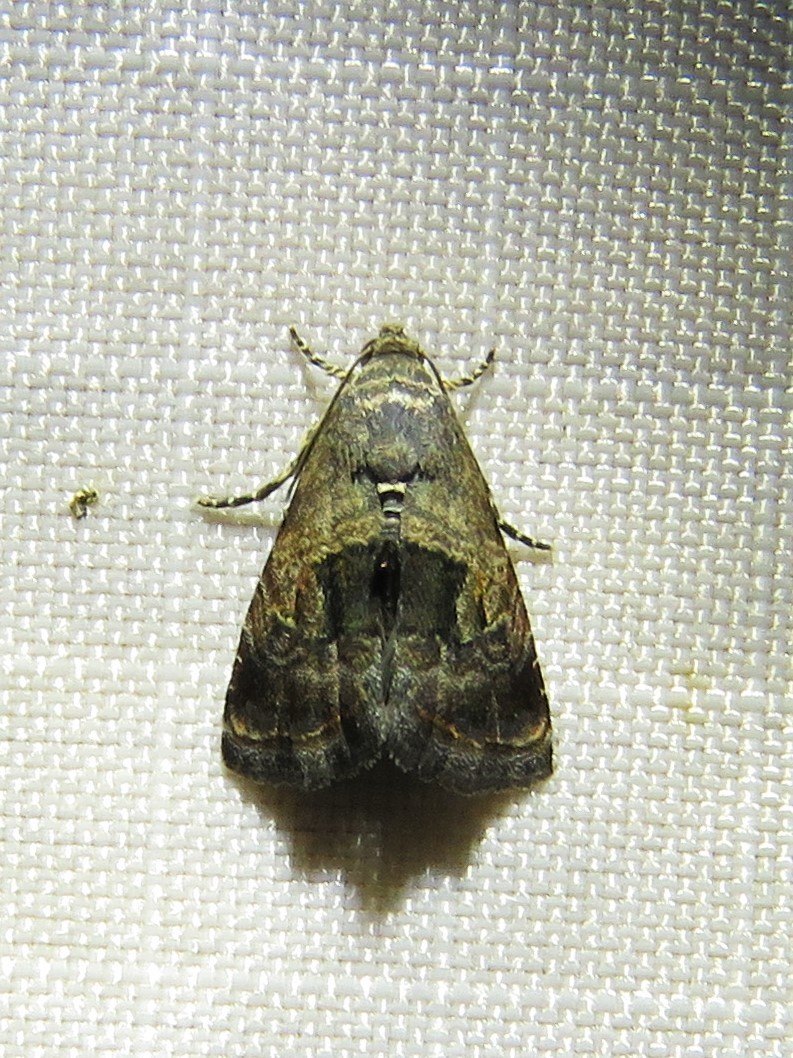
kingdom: Animalia
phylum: Arthropoda
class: Insecta
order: Lepidoptera
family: Noctuidae
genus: Tripudia
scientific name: Tripudia quadrifera
